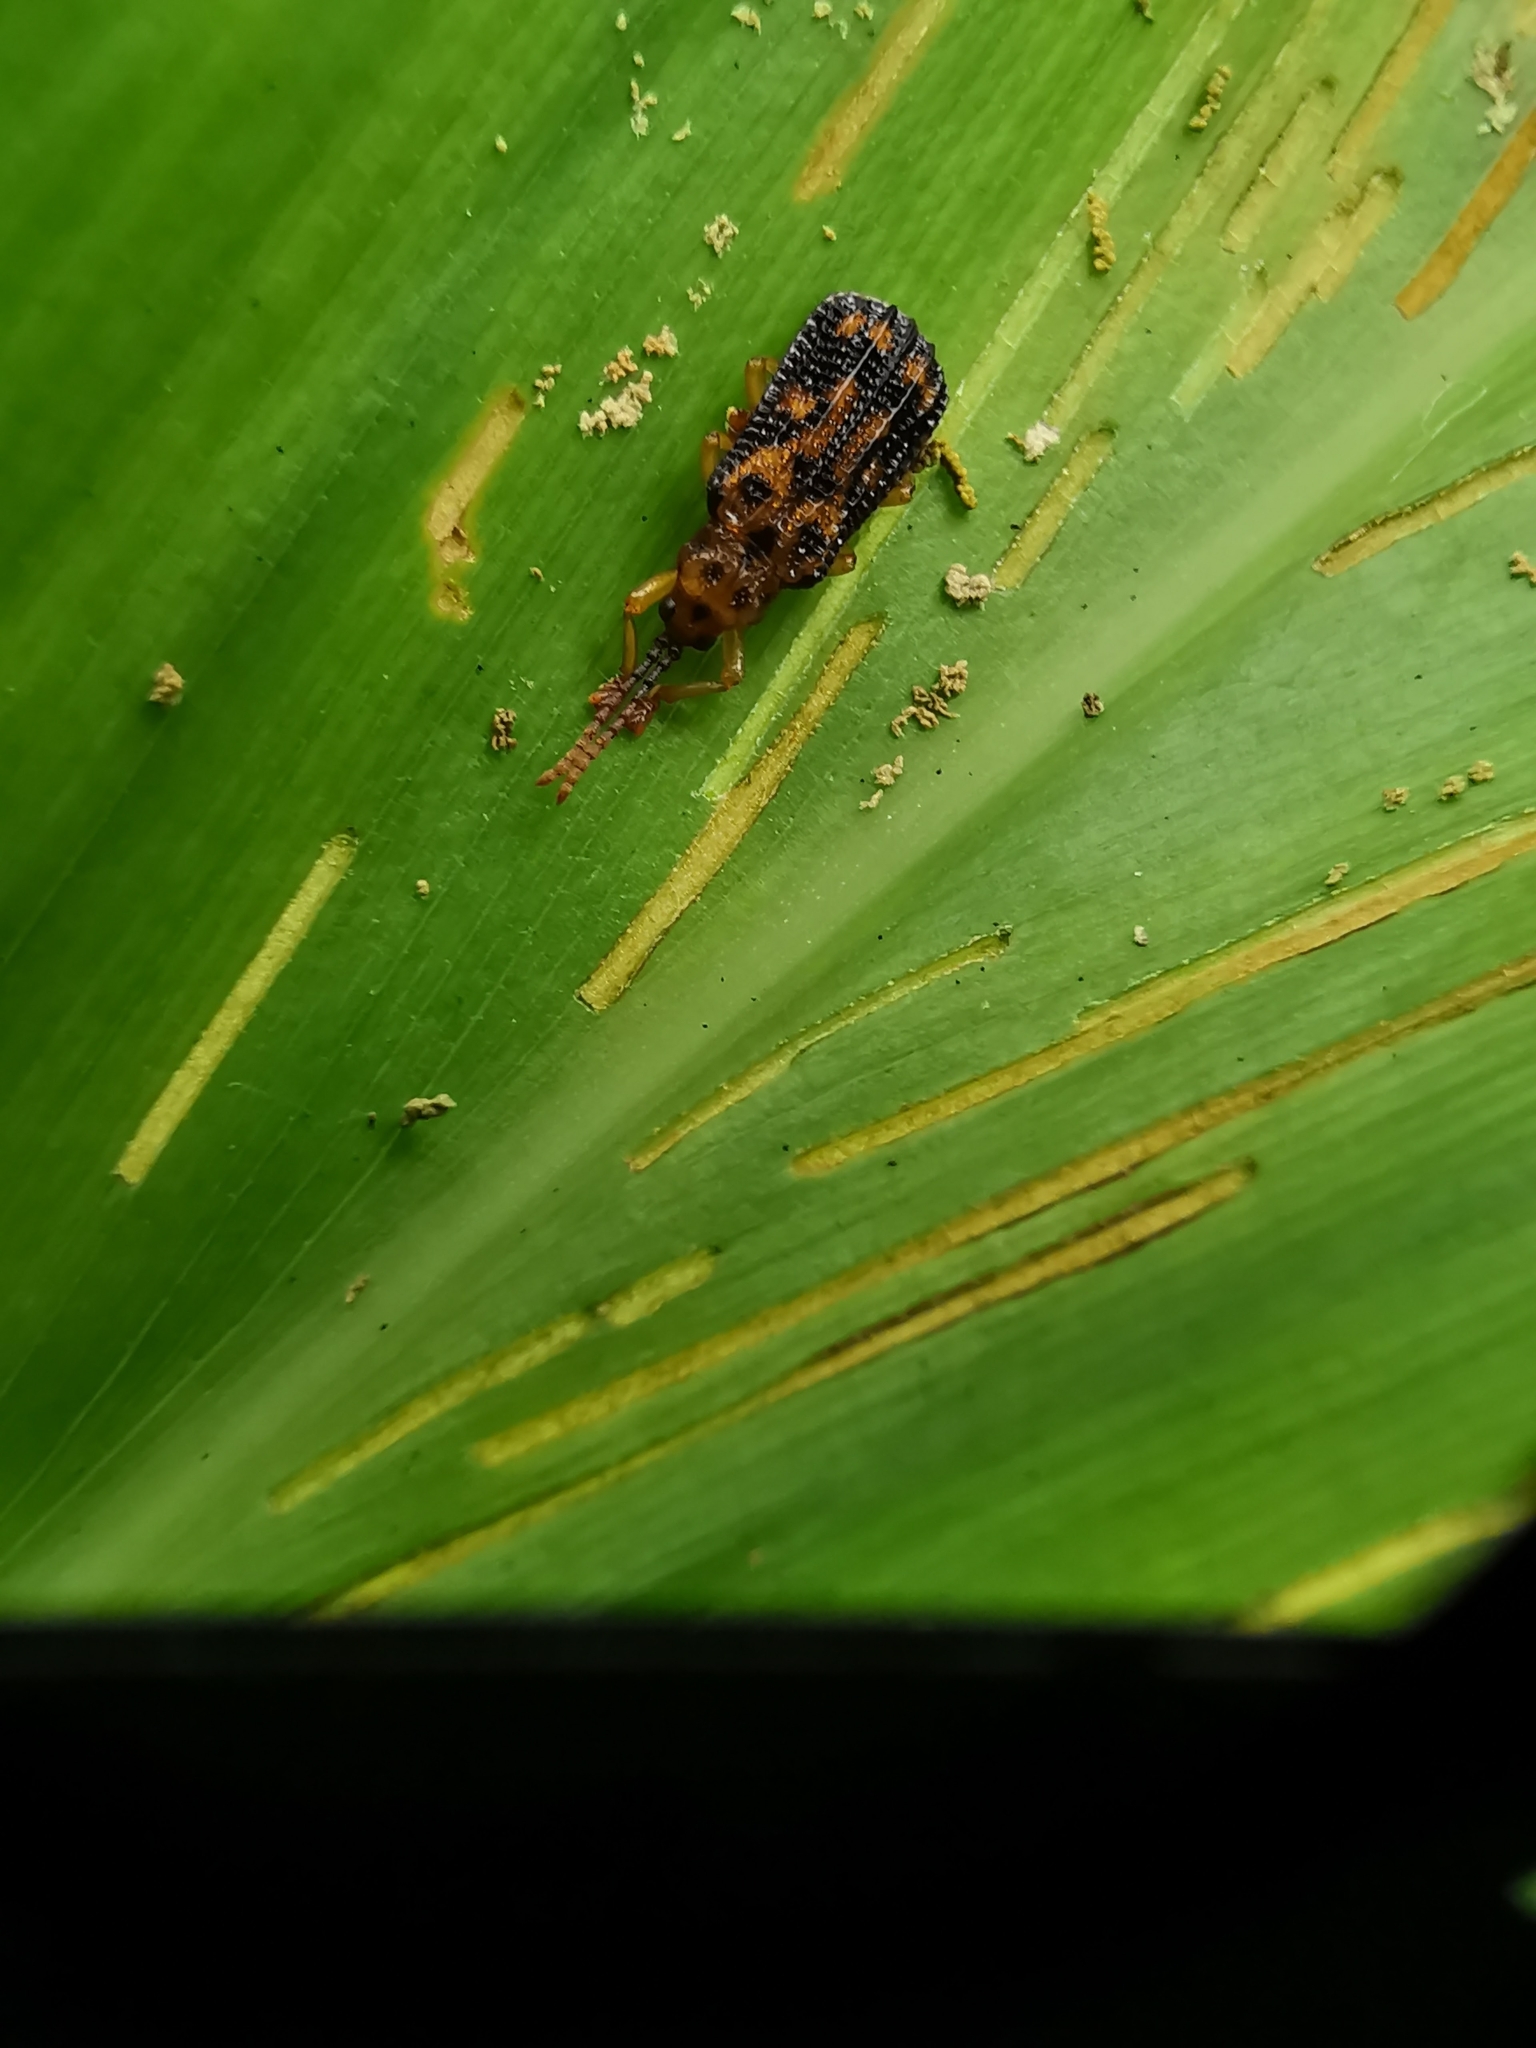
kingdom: Animalia
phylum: Arthropoda
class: Insecta
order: Coleoptera
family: Chrysomelidae
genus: Gonophora
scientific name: Gonophora pulchella
